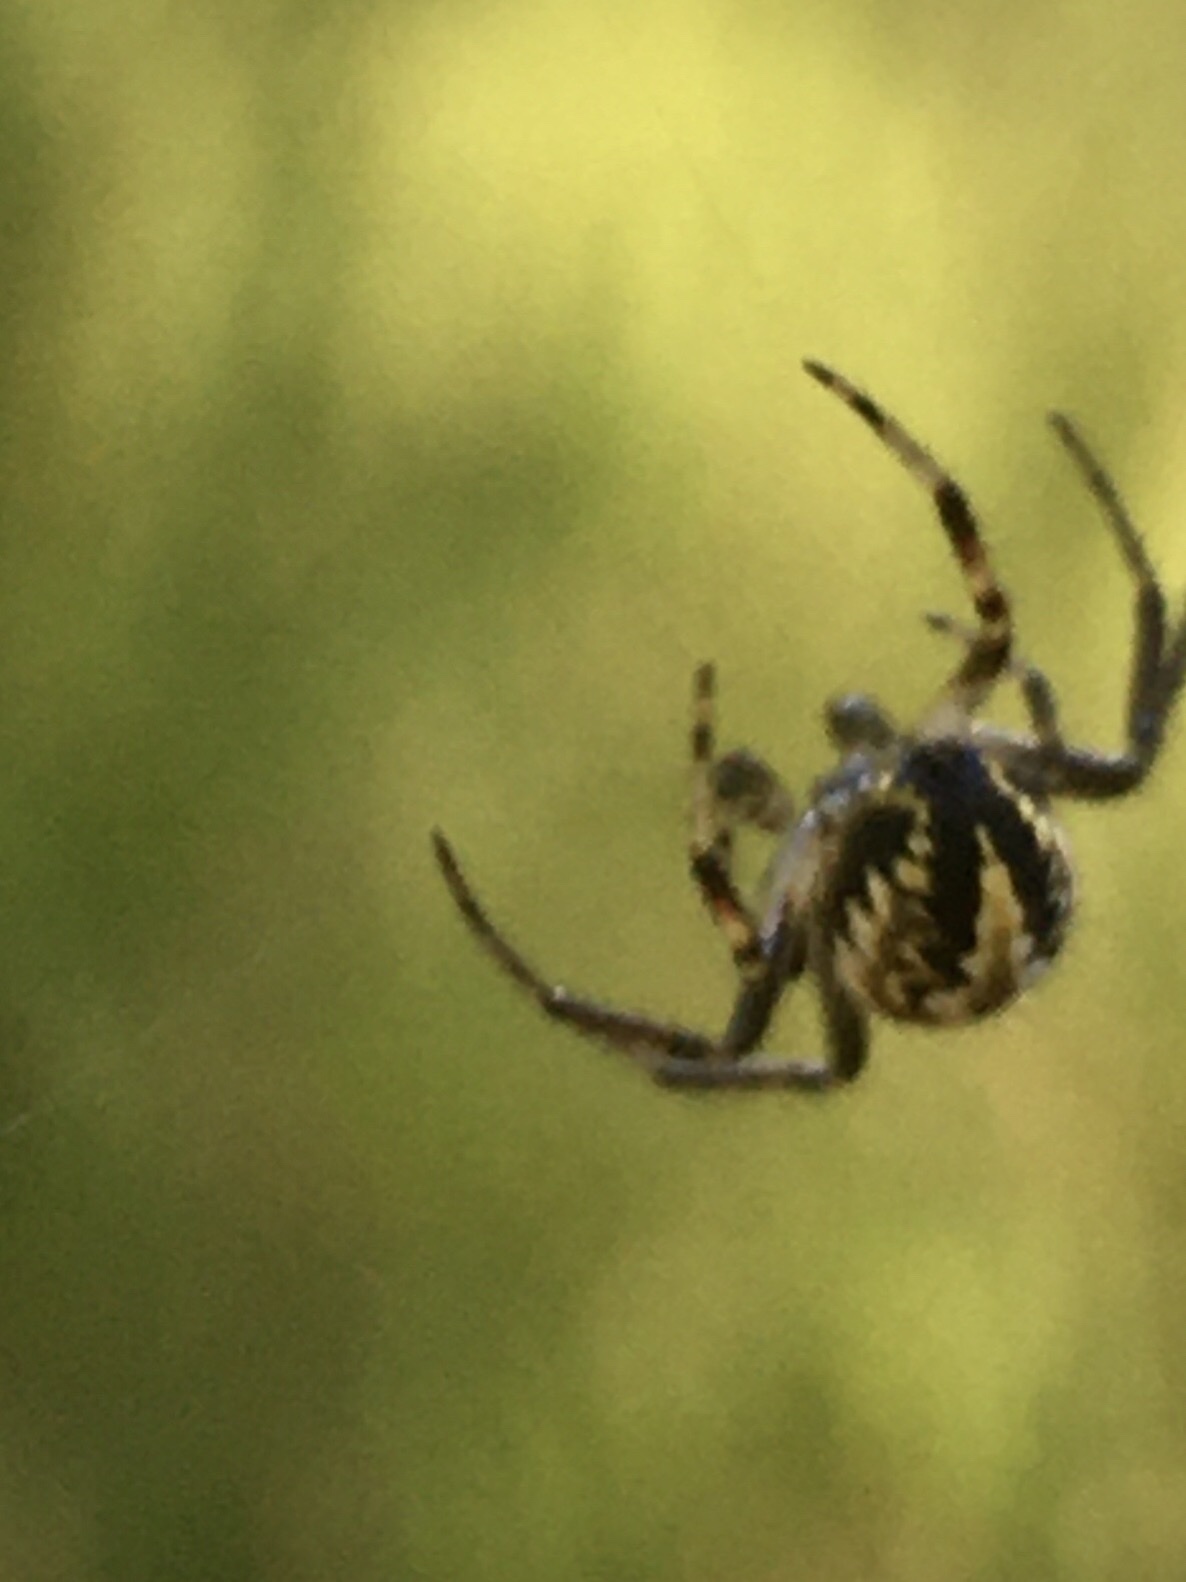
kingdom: Animalia
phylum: Arthropoda
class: Arachnida
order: Araneae
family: Araneidae
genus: Neoscona
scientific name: Neoscona adianta
